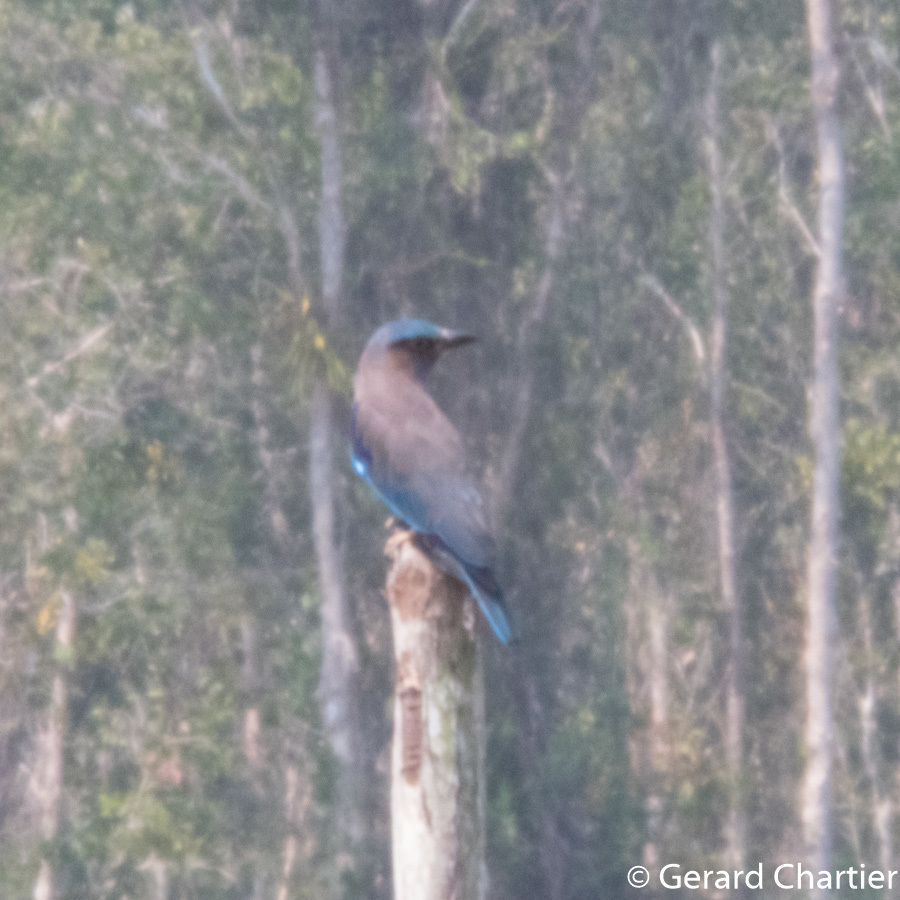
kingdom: Animalia
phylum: Chordata
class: Aves
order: Coraciiformes
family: Coraciidae
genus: Coracias
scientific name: Coracias affinis
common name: Indochinese roller
